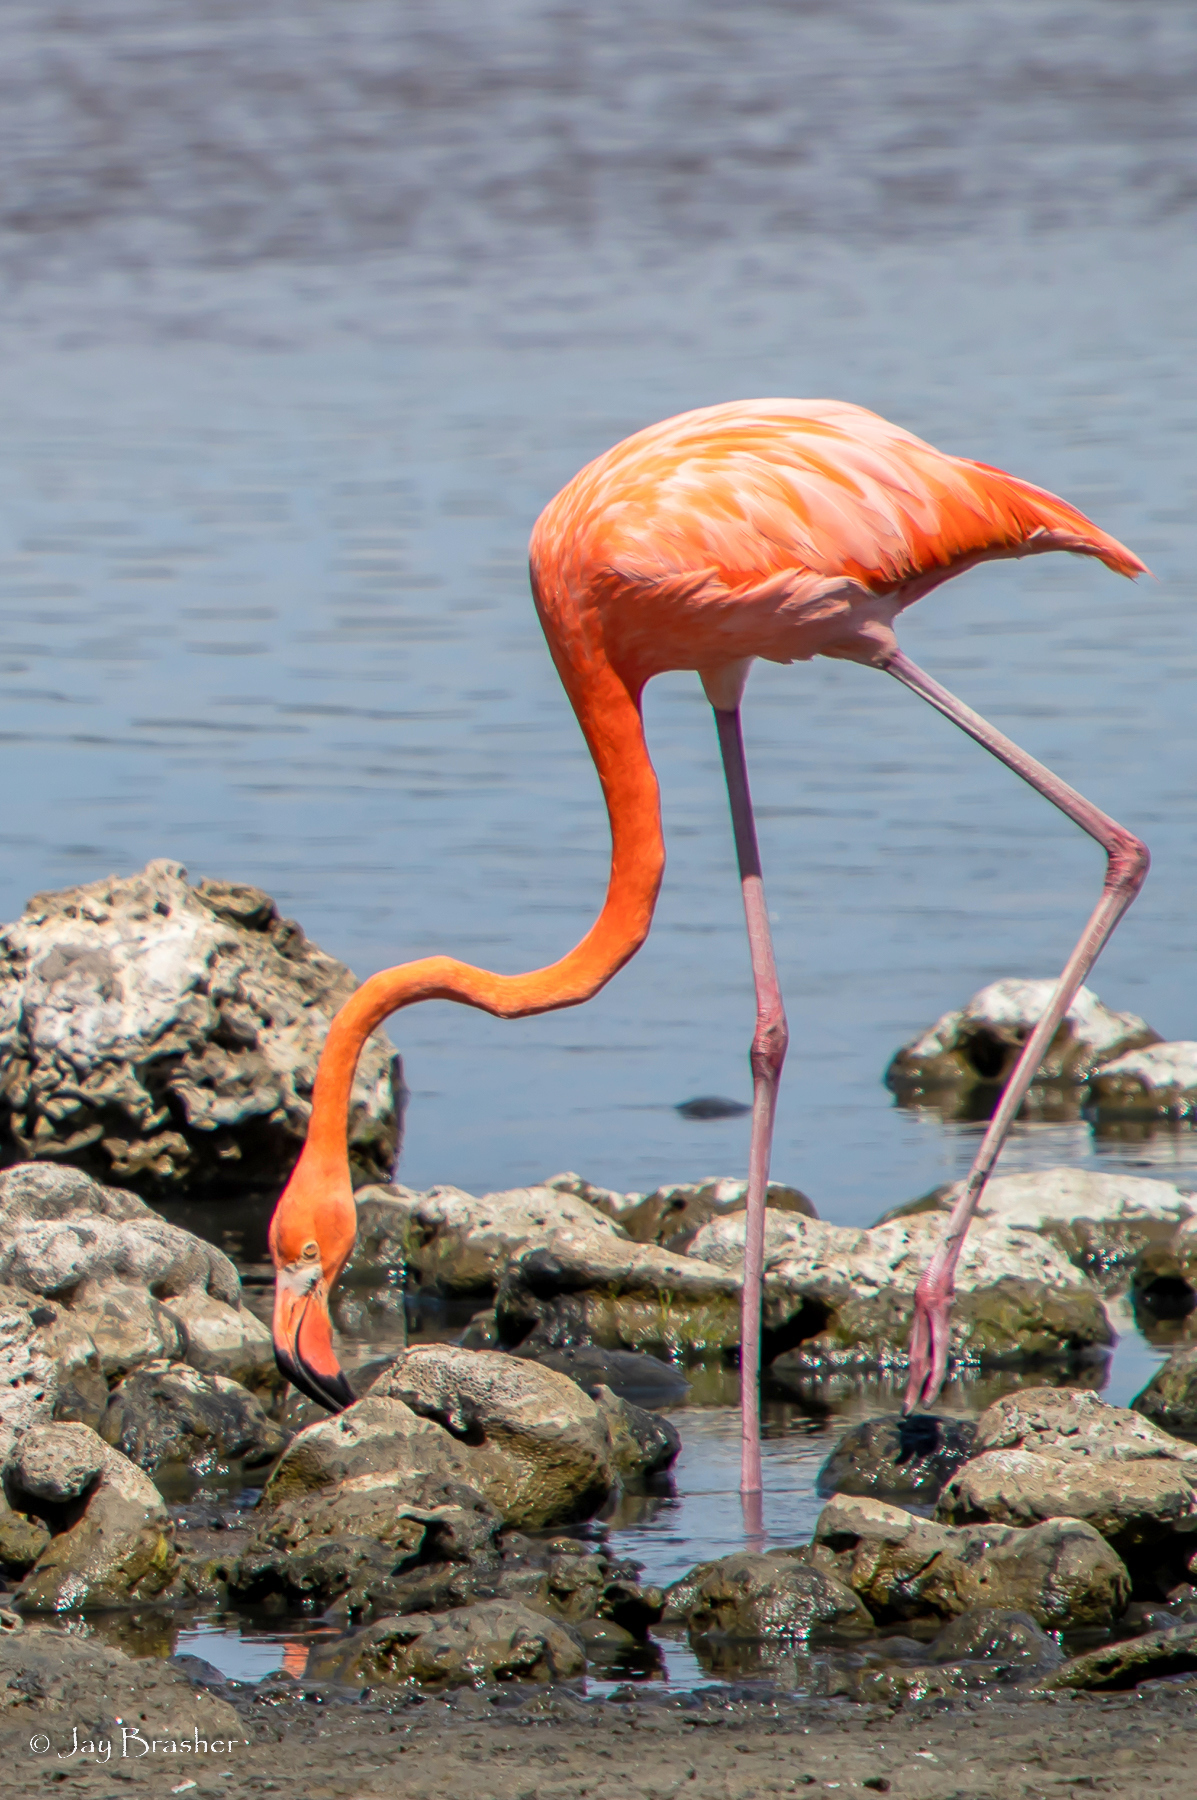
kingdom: Animalia
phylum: Chordata
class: Aves
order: Phoenicopteriformes
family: Phoenicopteridae
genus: Phoenicopterus
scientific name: Phoenicopterus ruber
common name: American flamingo
